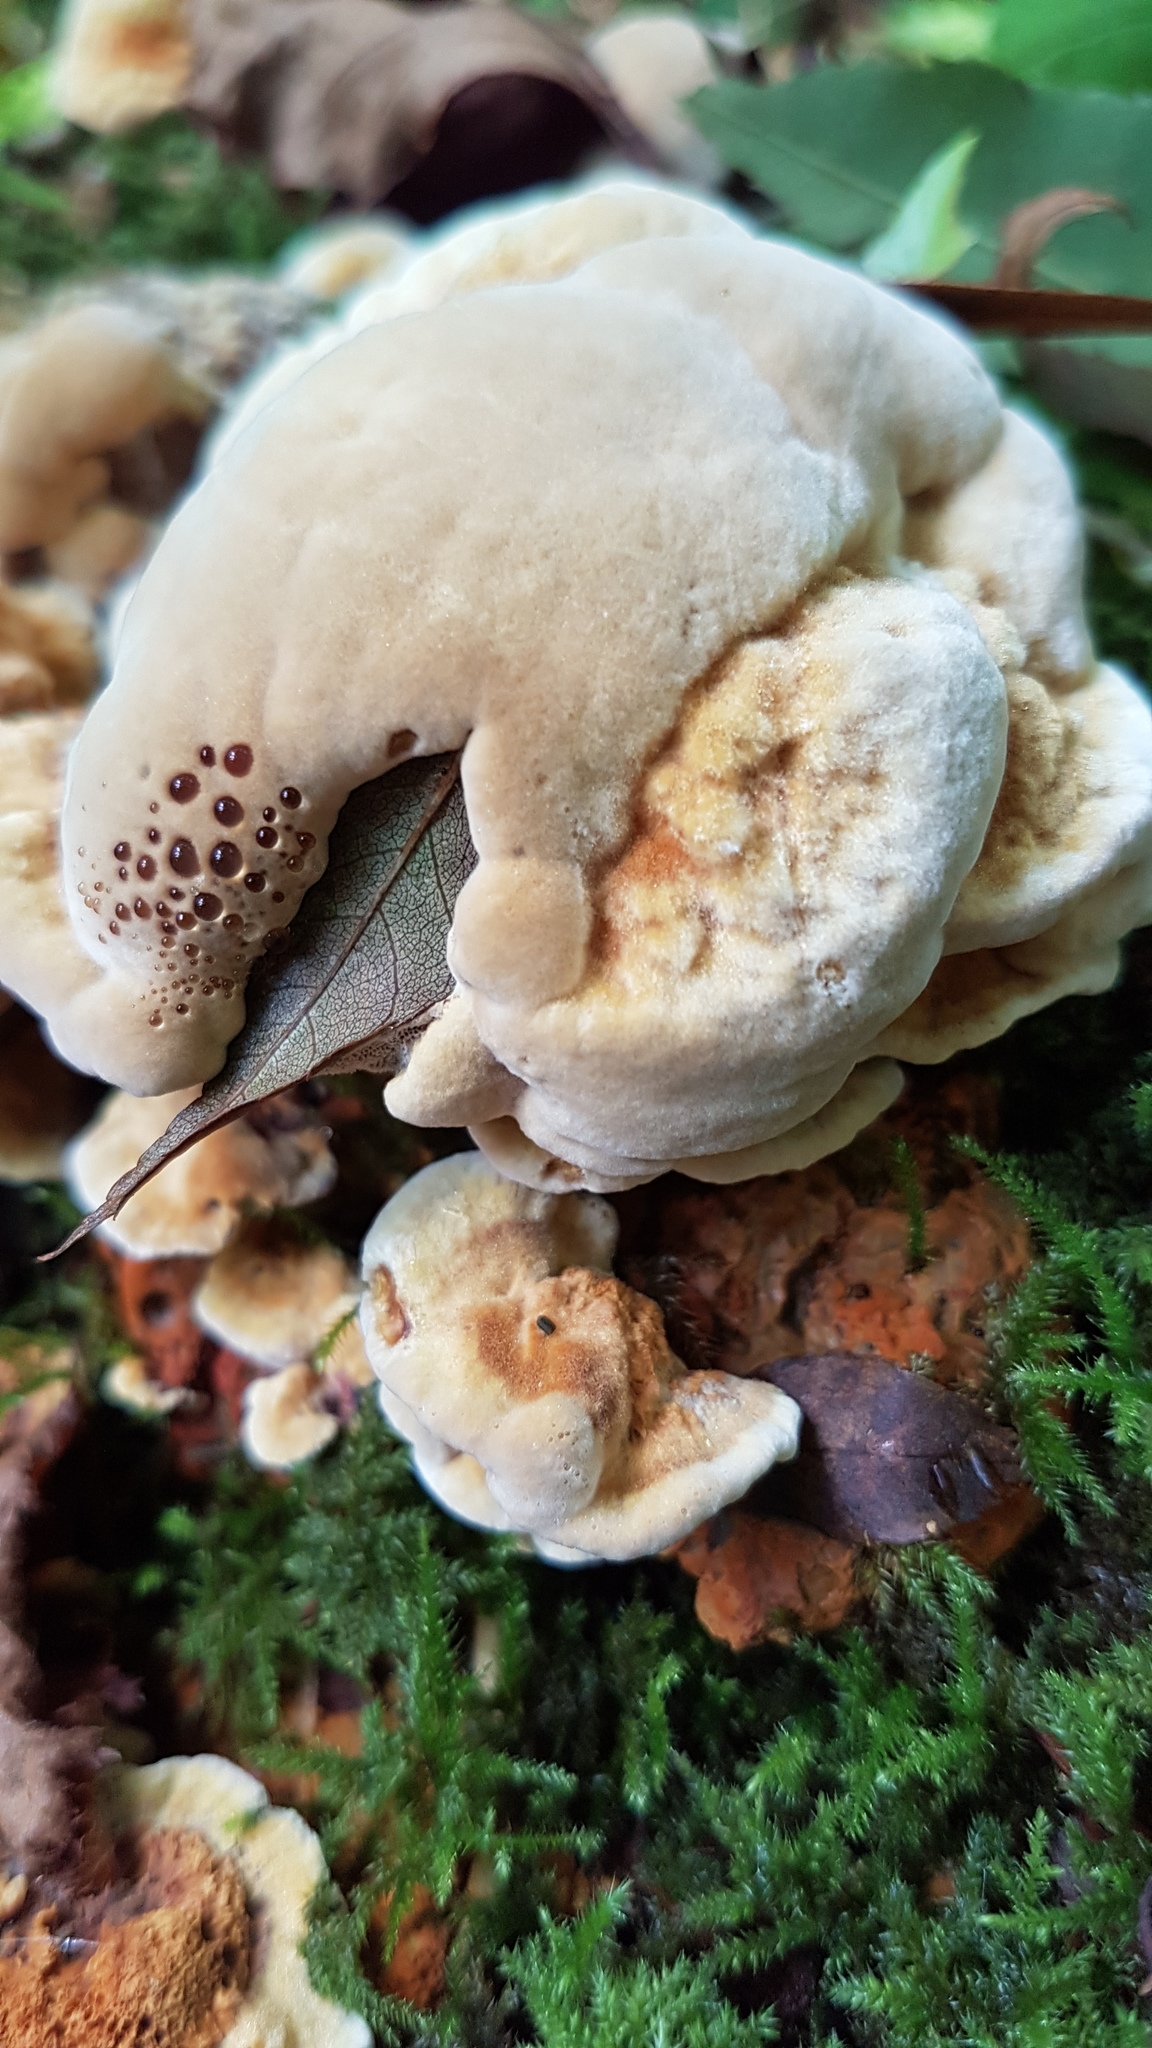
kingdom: Fungi
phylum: Basidiomycota
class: Agaricomycetes
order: Polyporales
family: Laetiporaceae
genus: Phaeolus
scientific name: Phaeolus schweinitzii
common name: Dyer's mazegill
